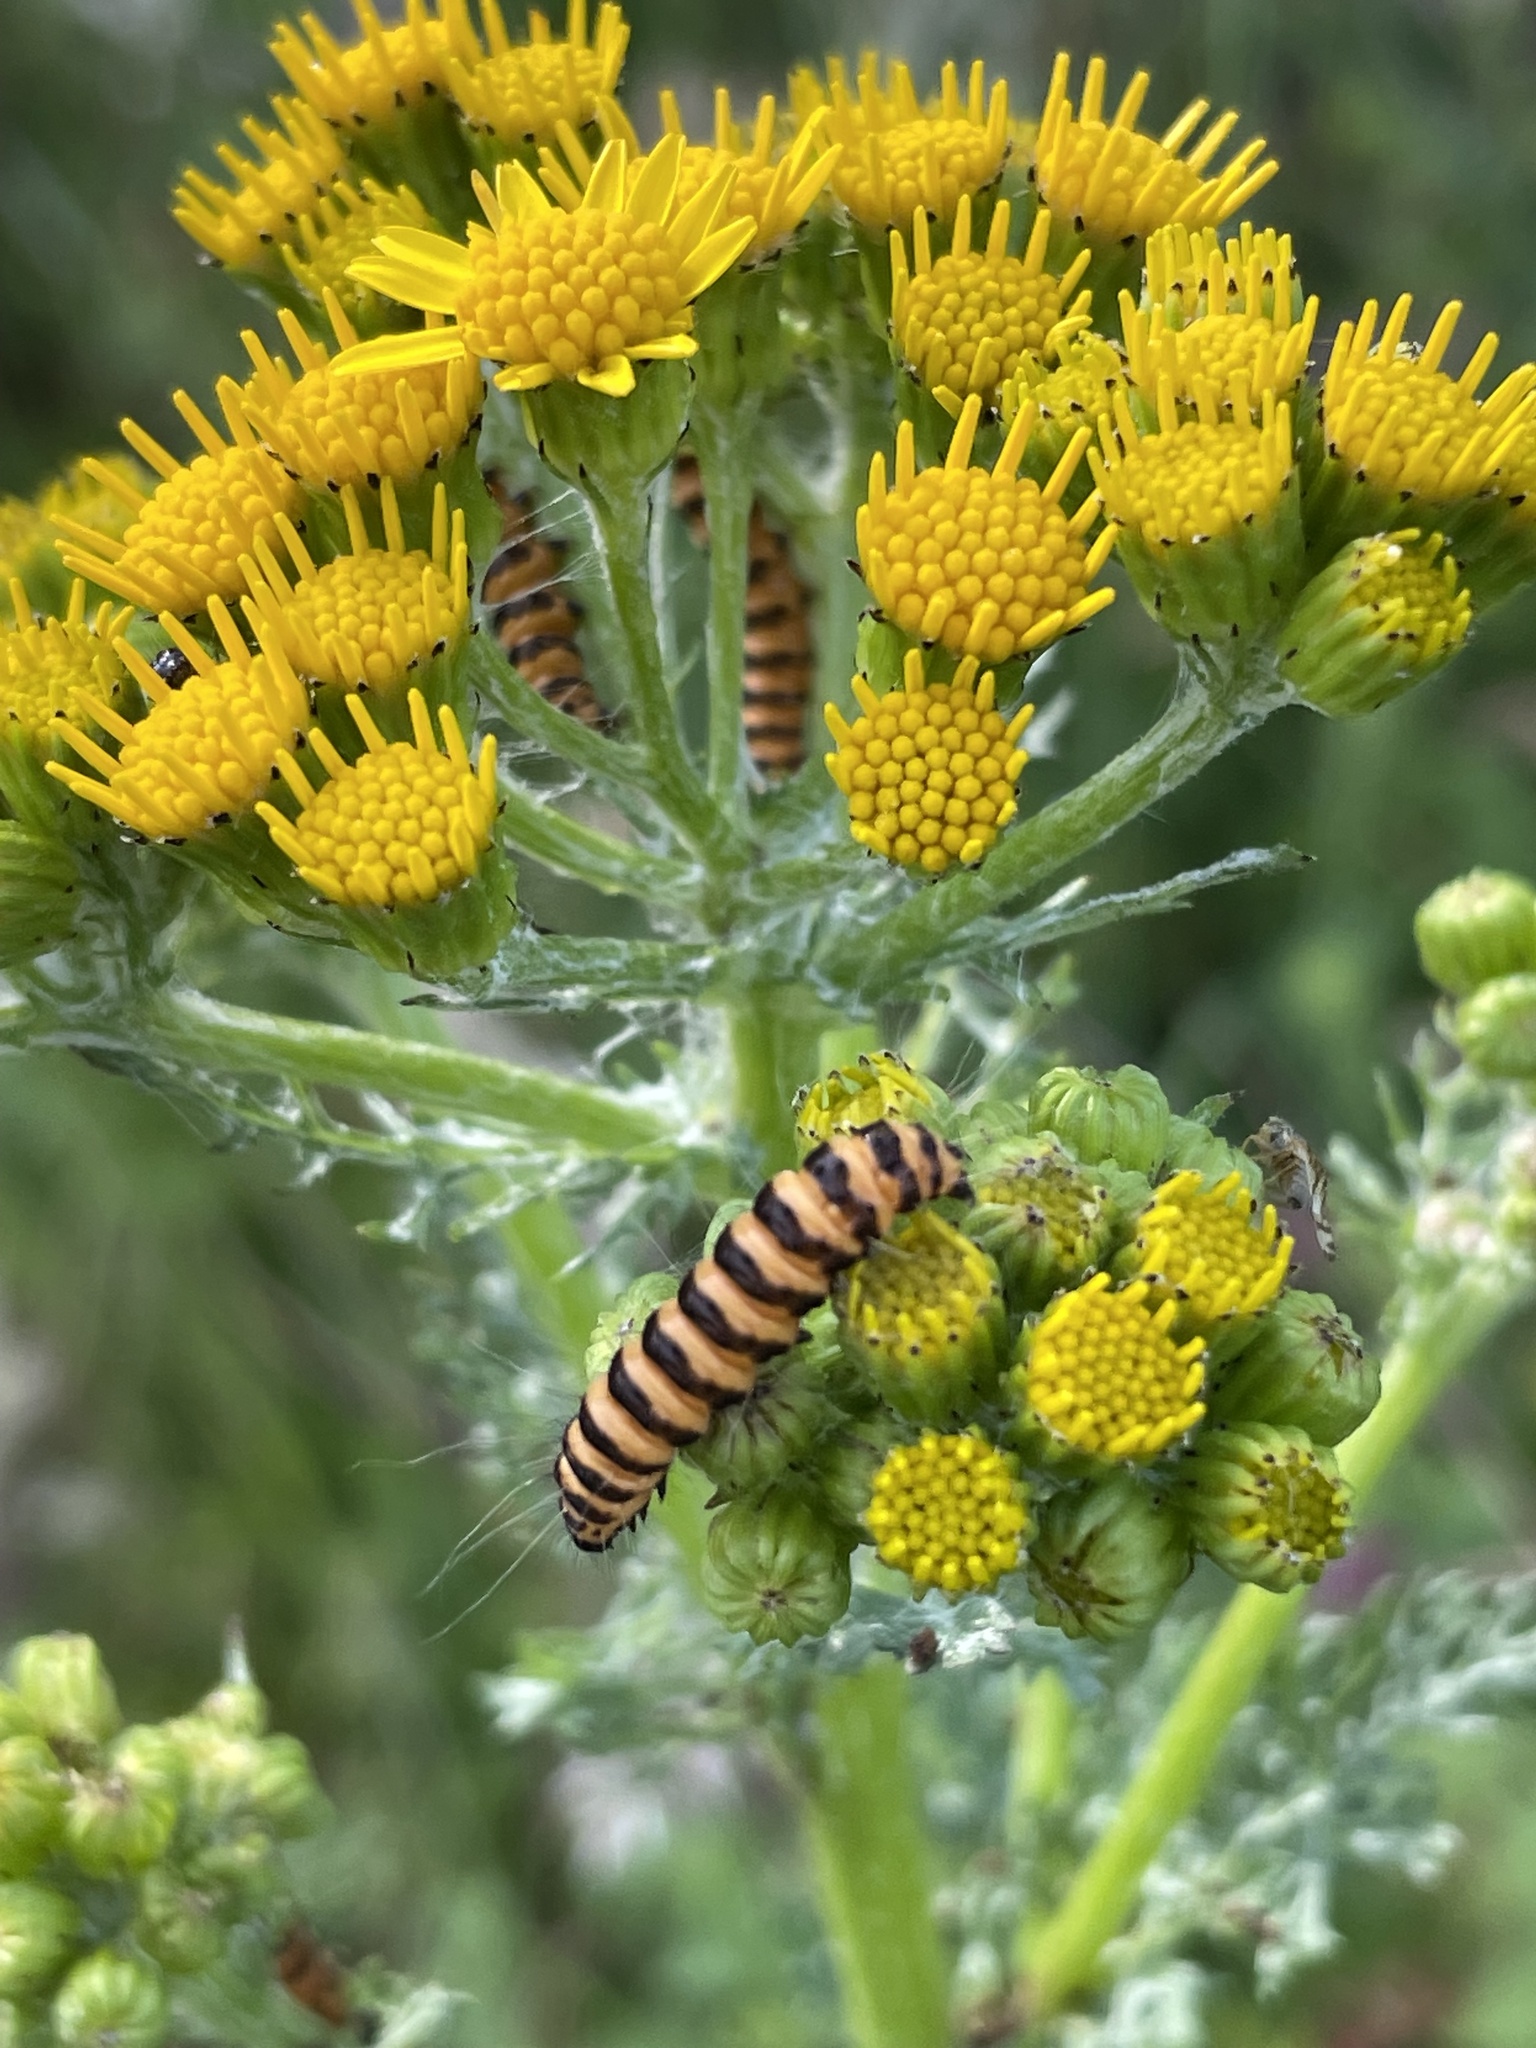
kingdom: Animalia
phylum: Arthropoda
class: Insecta
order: Lepidoptera
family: Erebidae
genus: Tyria
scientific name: Tyria jacobaeae
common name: Cinnabar
